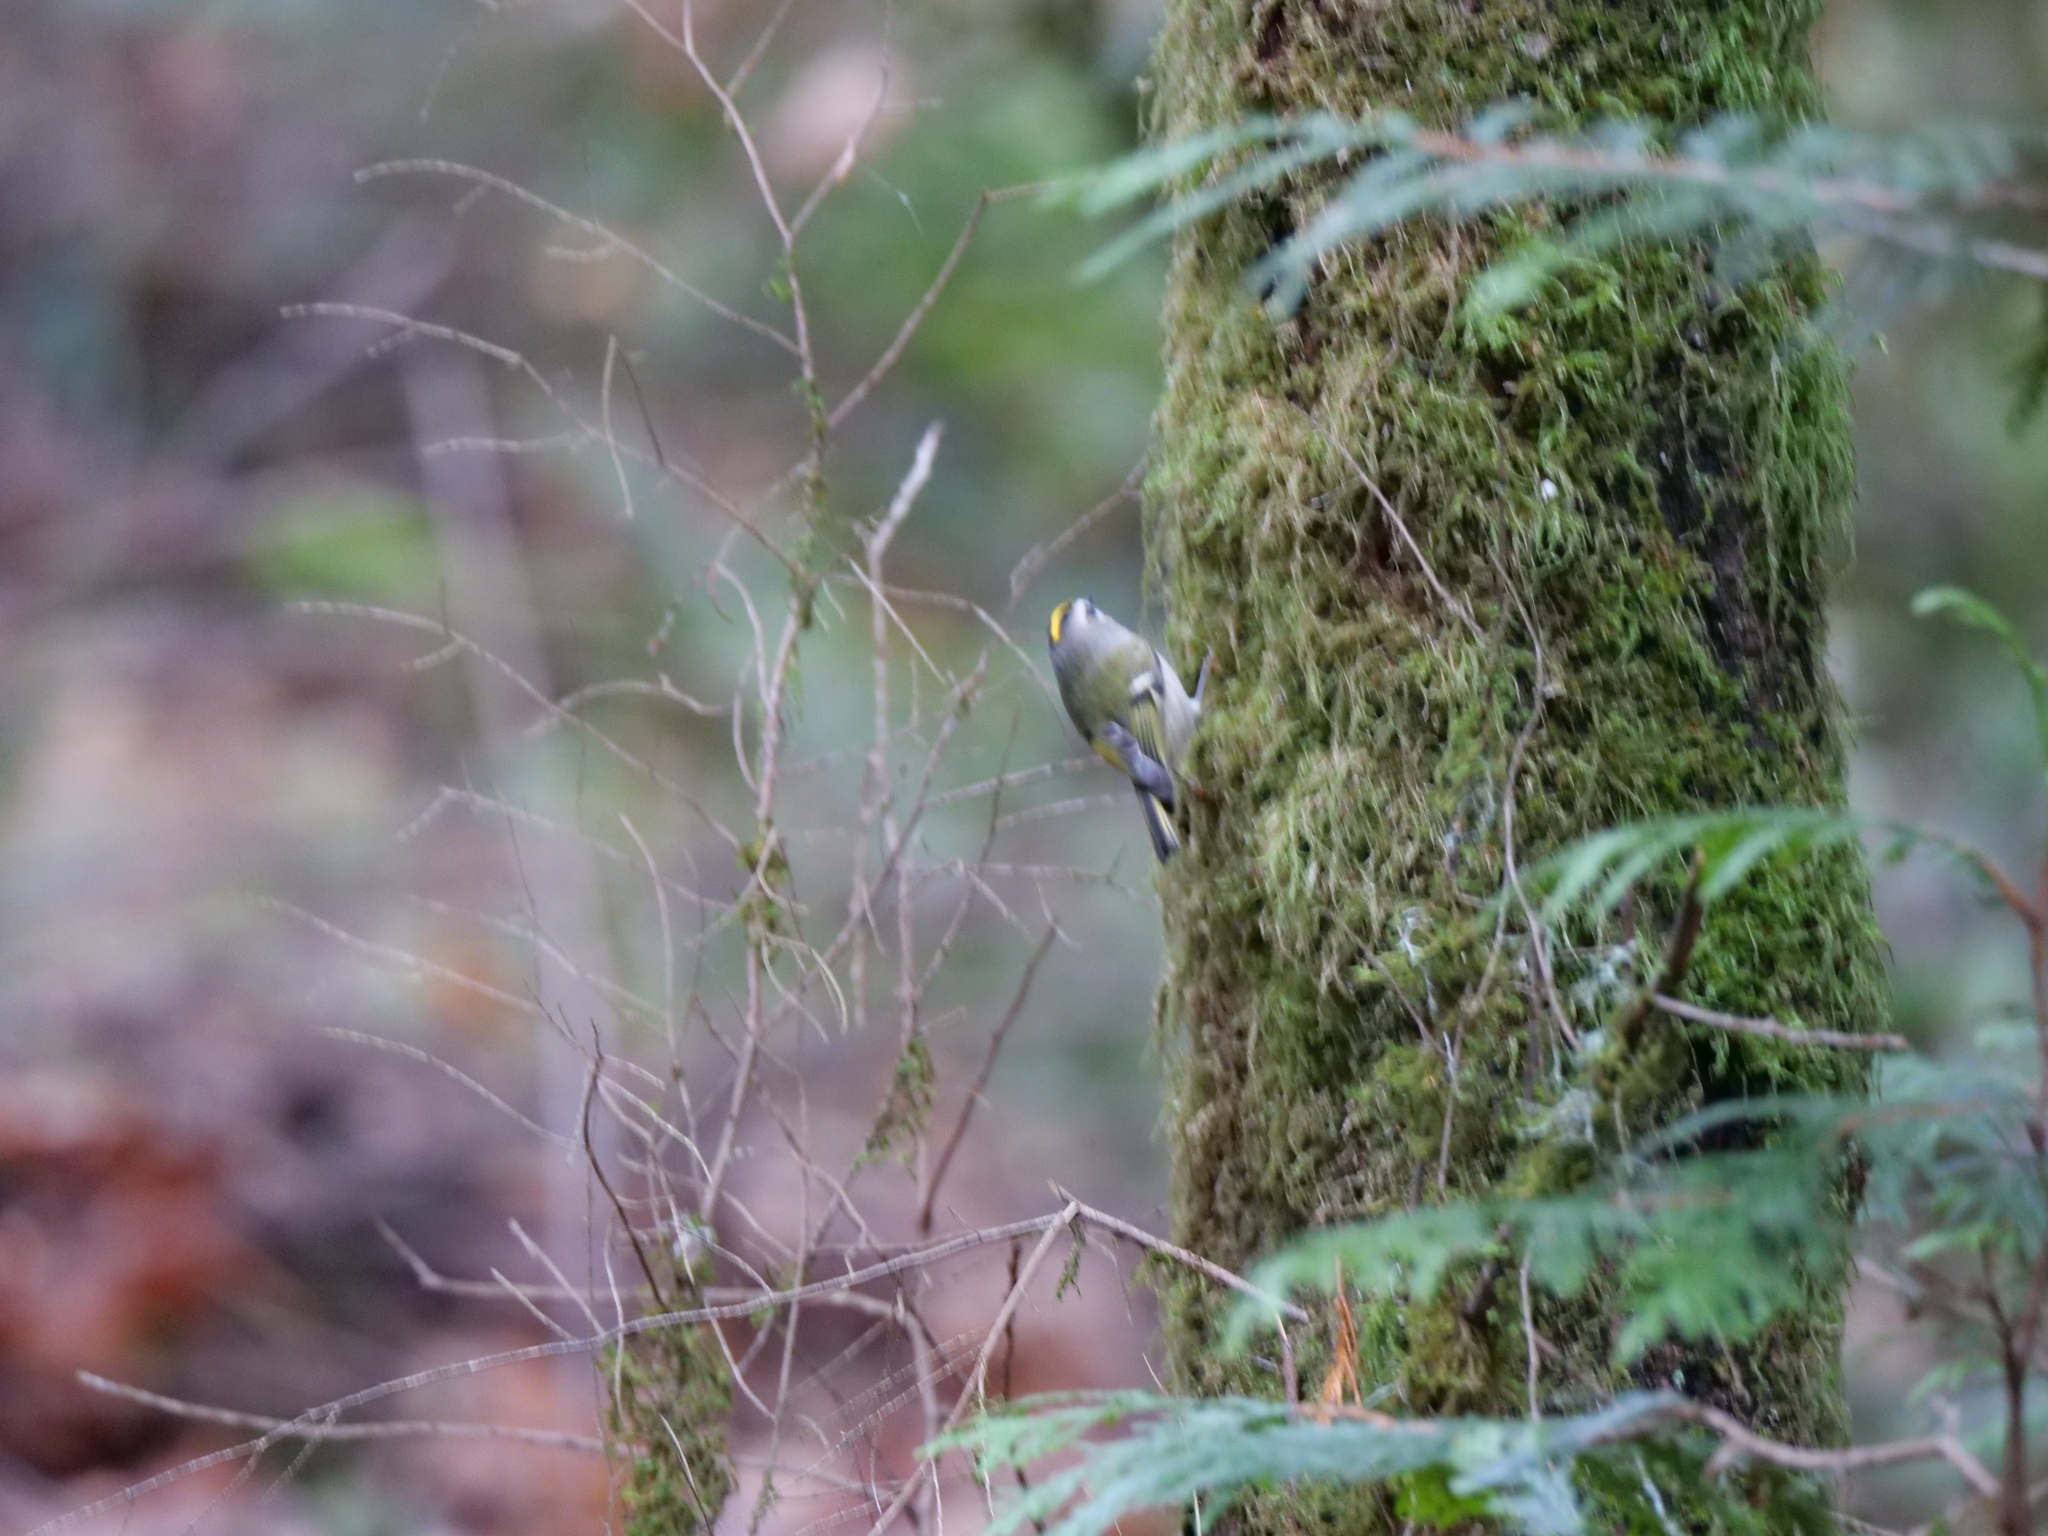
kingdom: Animalia
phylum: Chordata
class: Aves
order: Passeriformes
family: Regulidae
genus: Regulus
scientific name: Regulus satrapa
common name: Golden-crowned kinglet
